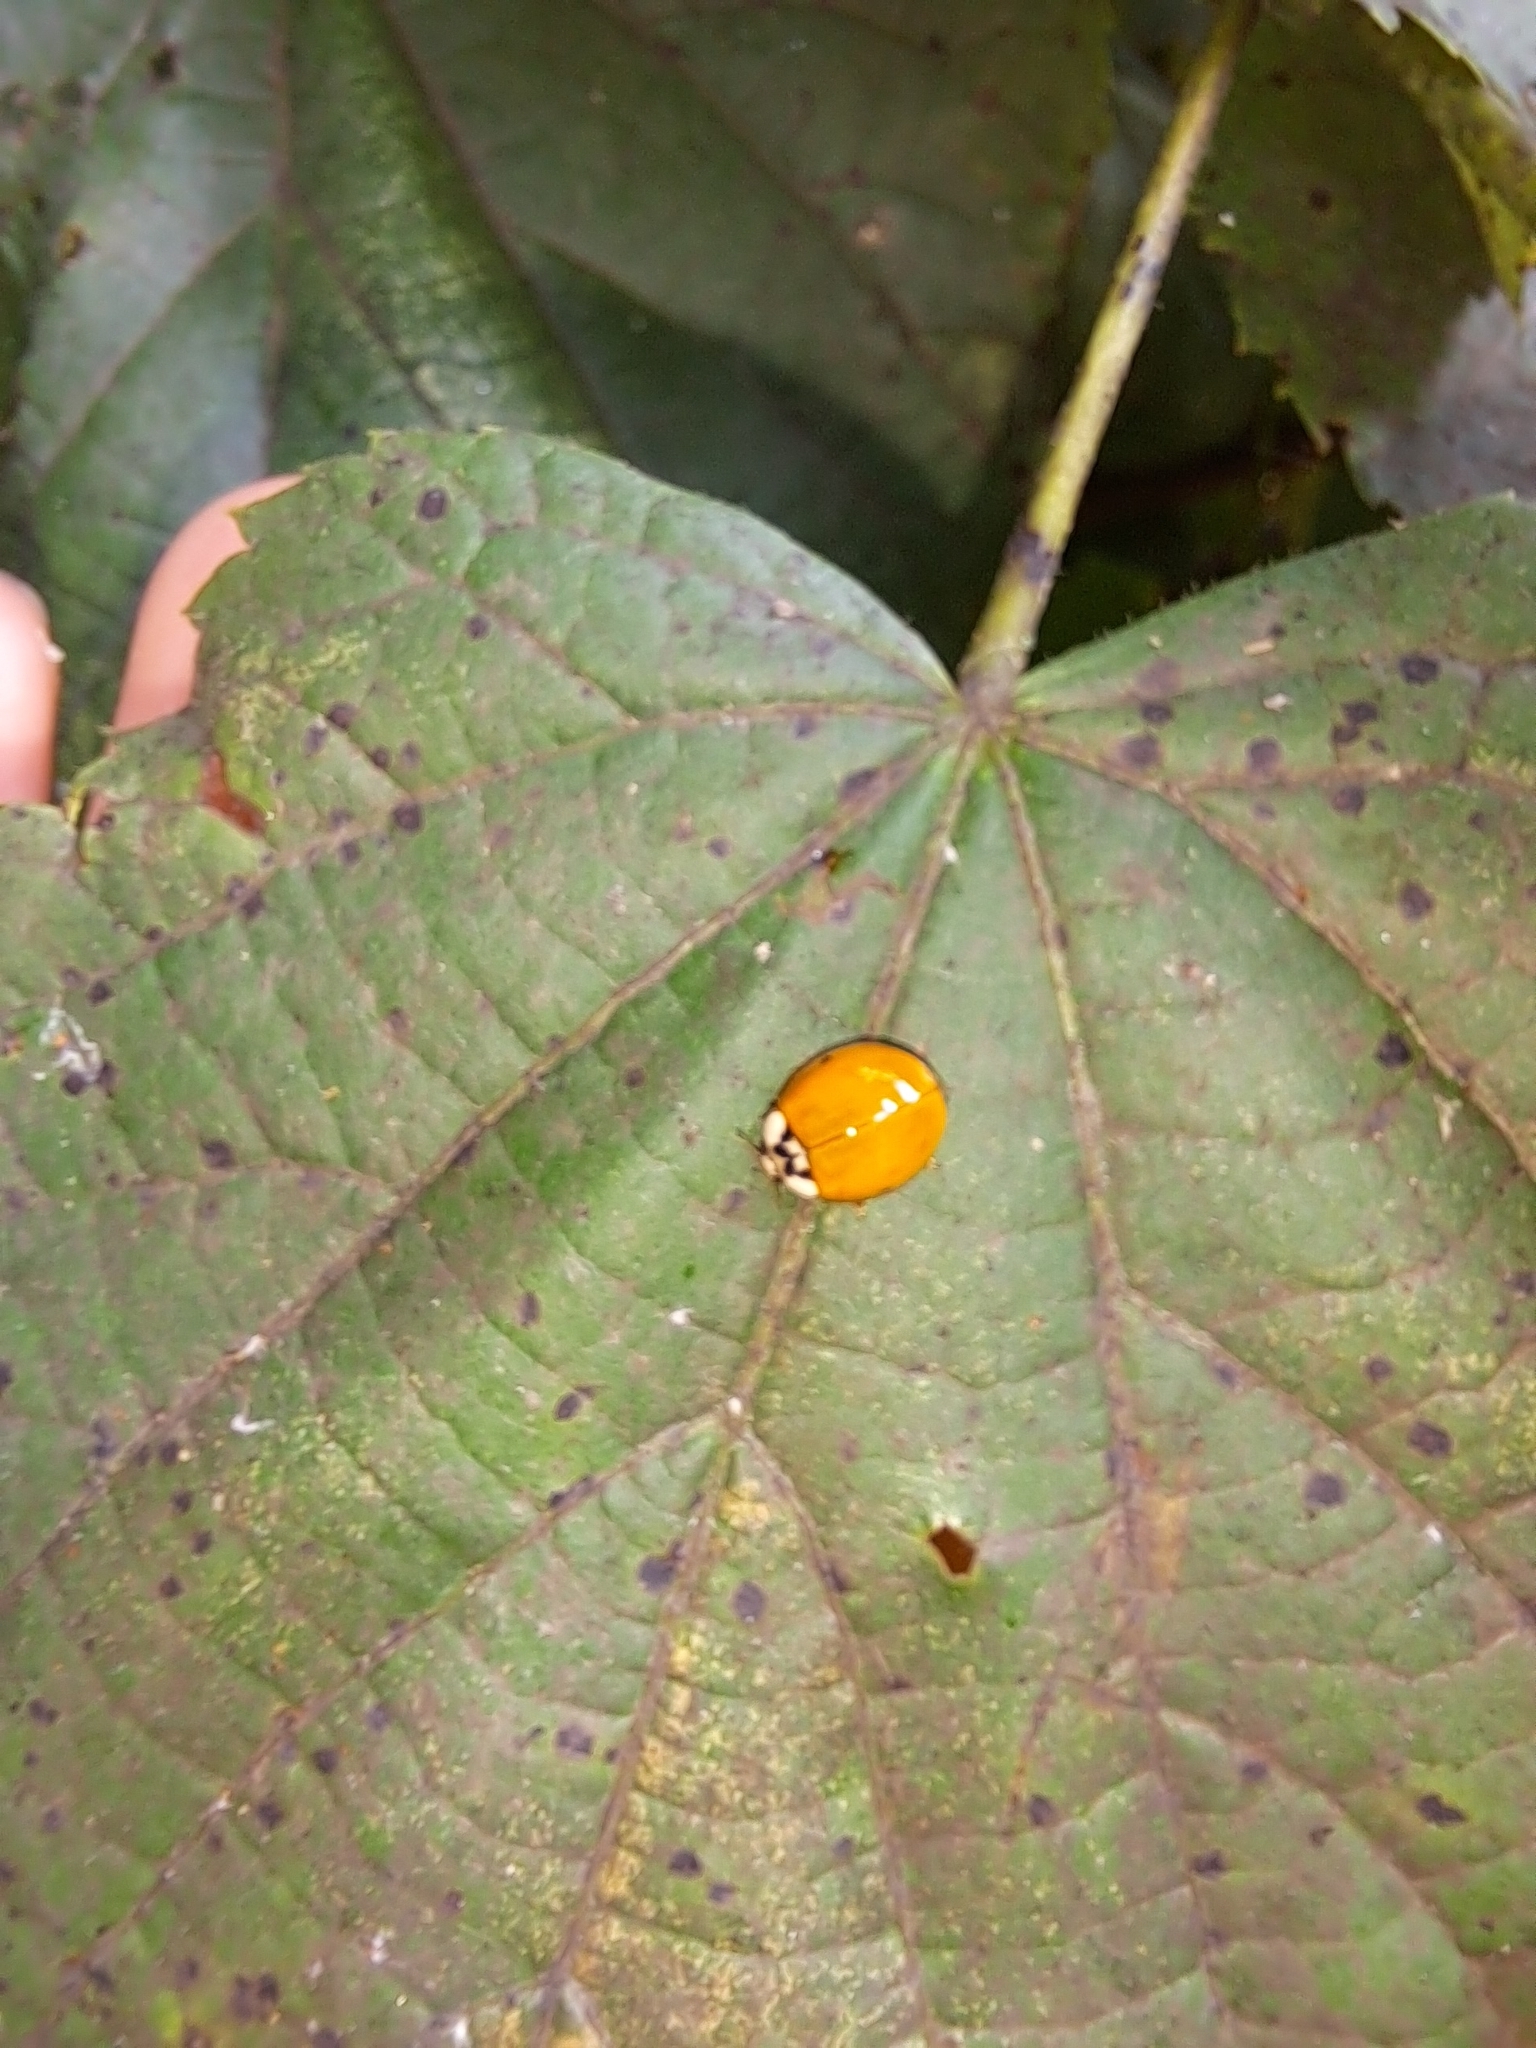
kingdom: Animalia
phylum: Arthropoda
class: Insecta
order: Coleoptera
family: Coccinellidae
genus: Harmonia
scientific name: Harmonia axyridis
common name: Harlequin ladybird
